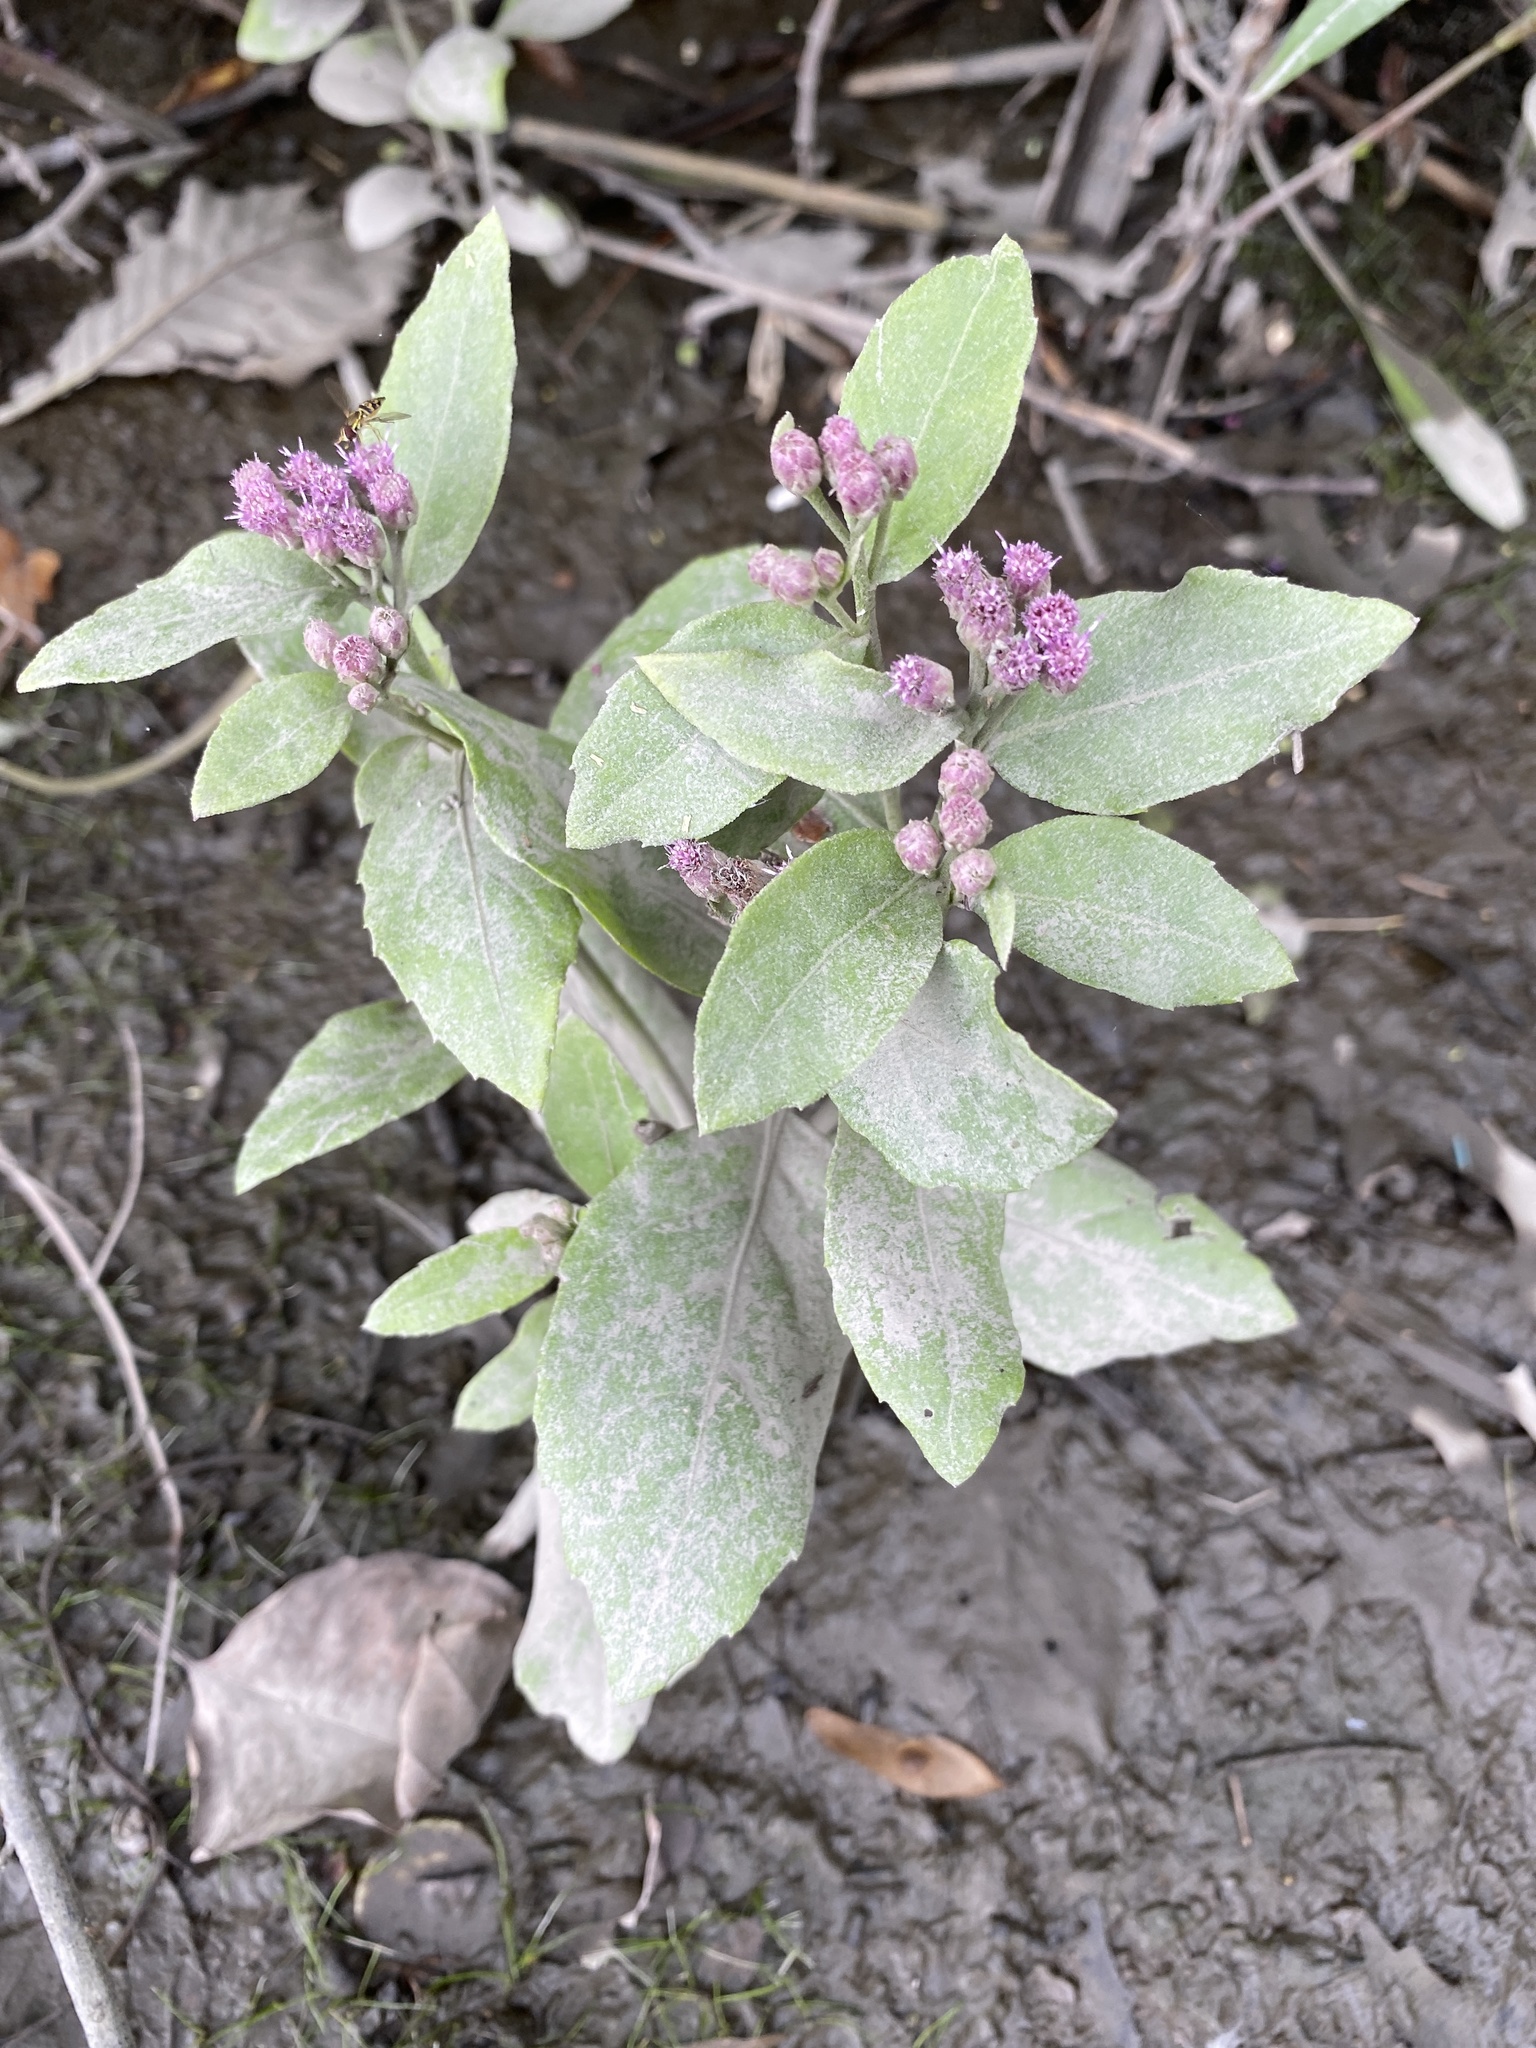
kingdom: Plantae
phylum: Tracheophyta
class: Magnoliopsida
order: Asterales
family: Asteraceae
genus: Pluchea
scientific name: Pluchea odorata
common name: Saltmarsh fleabane
